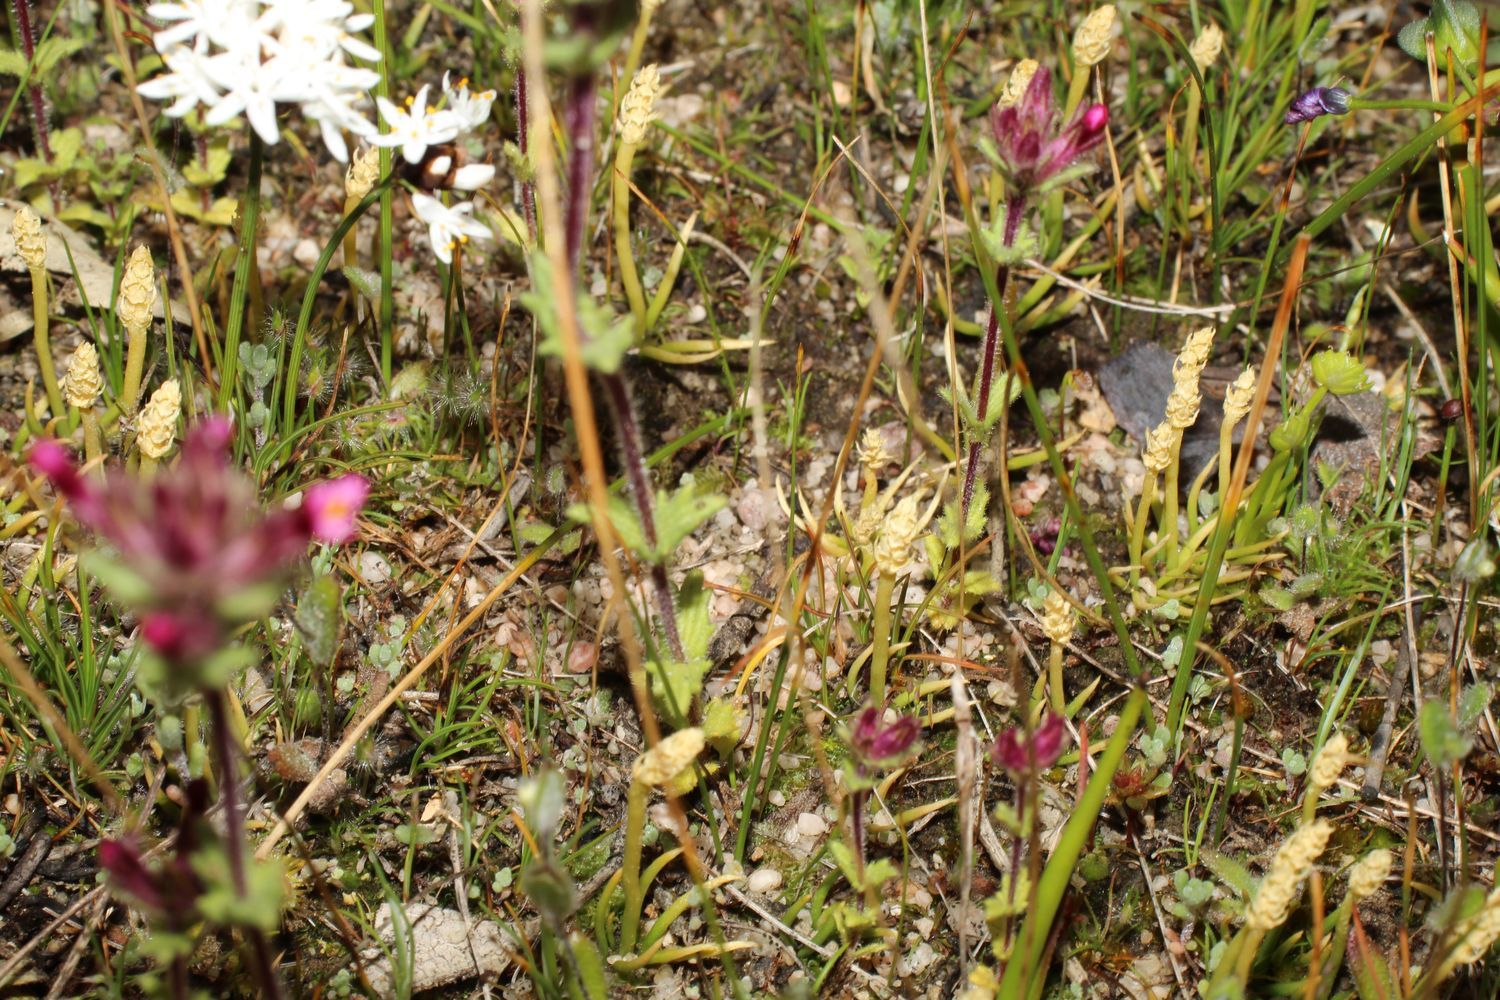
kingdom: Plantae
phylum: Tracheophyta
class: Lycopodiopsida
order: Lycopodiales
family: Lycopodiaceae
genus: Phylloglossum
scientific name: Phylloglossum drummondii
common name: Pigmy-club-moss
